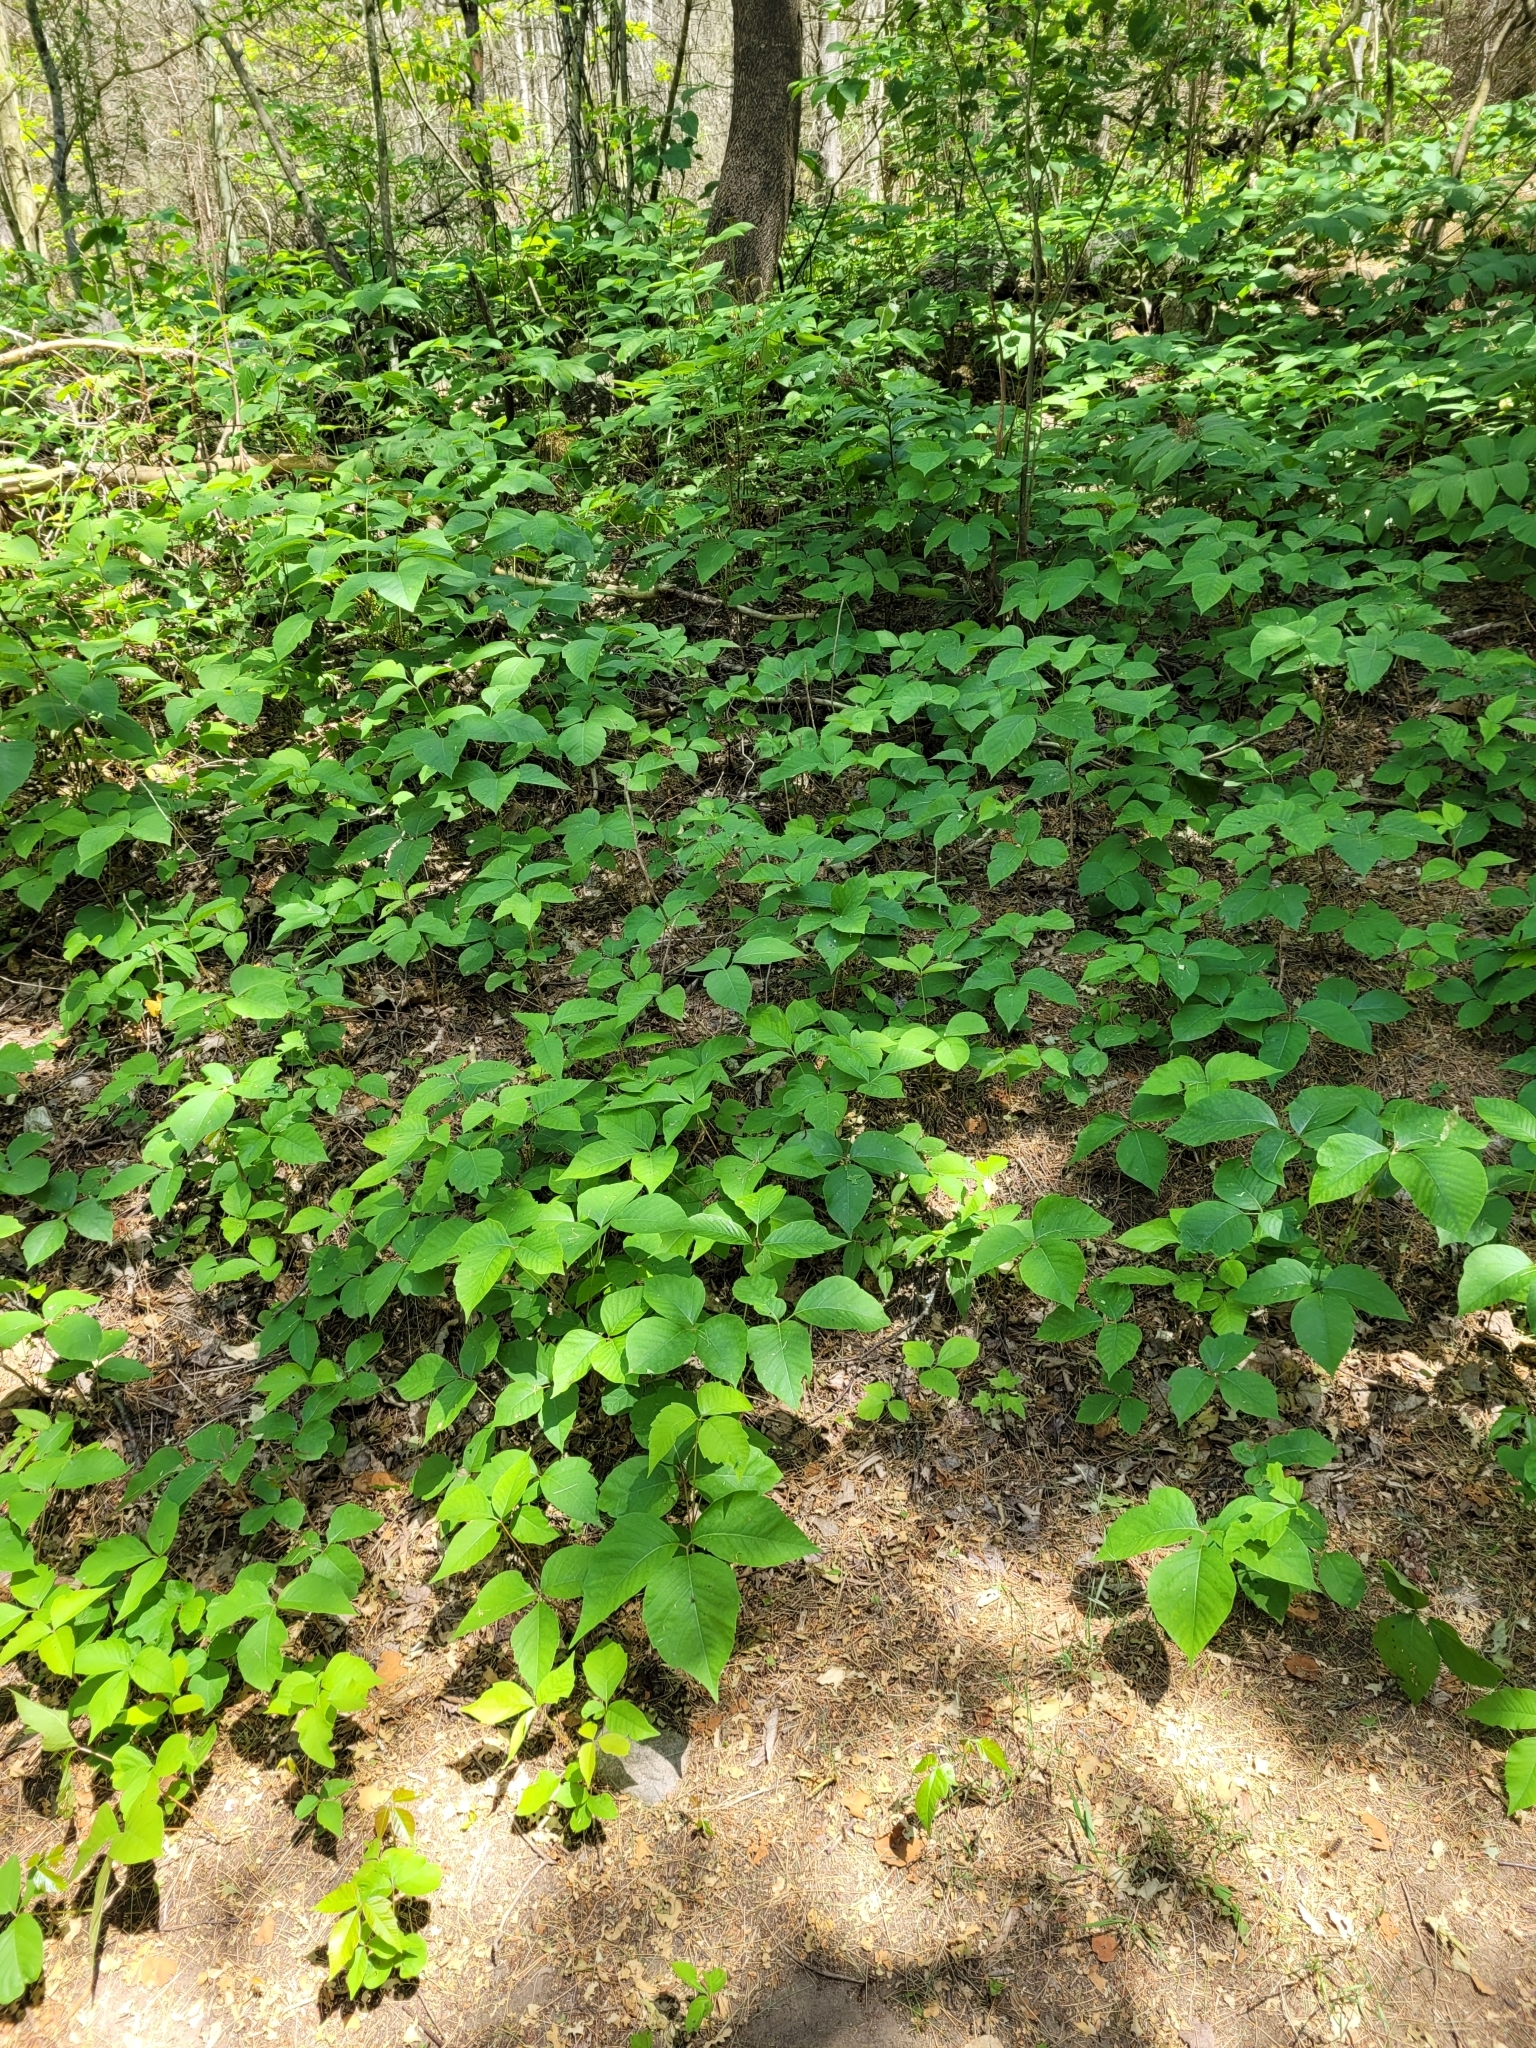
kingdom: Plantae
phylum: Tracheophyta
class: Magnoliopsida
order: Sapindales
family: Anacardiaceae
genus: Toxicodendron
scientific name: Toxicodendron radicans
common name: Poison ivy
